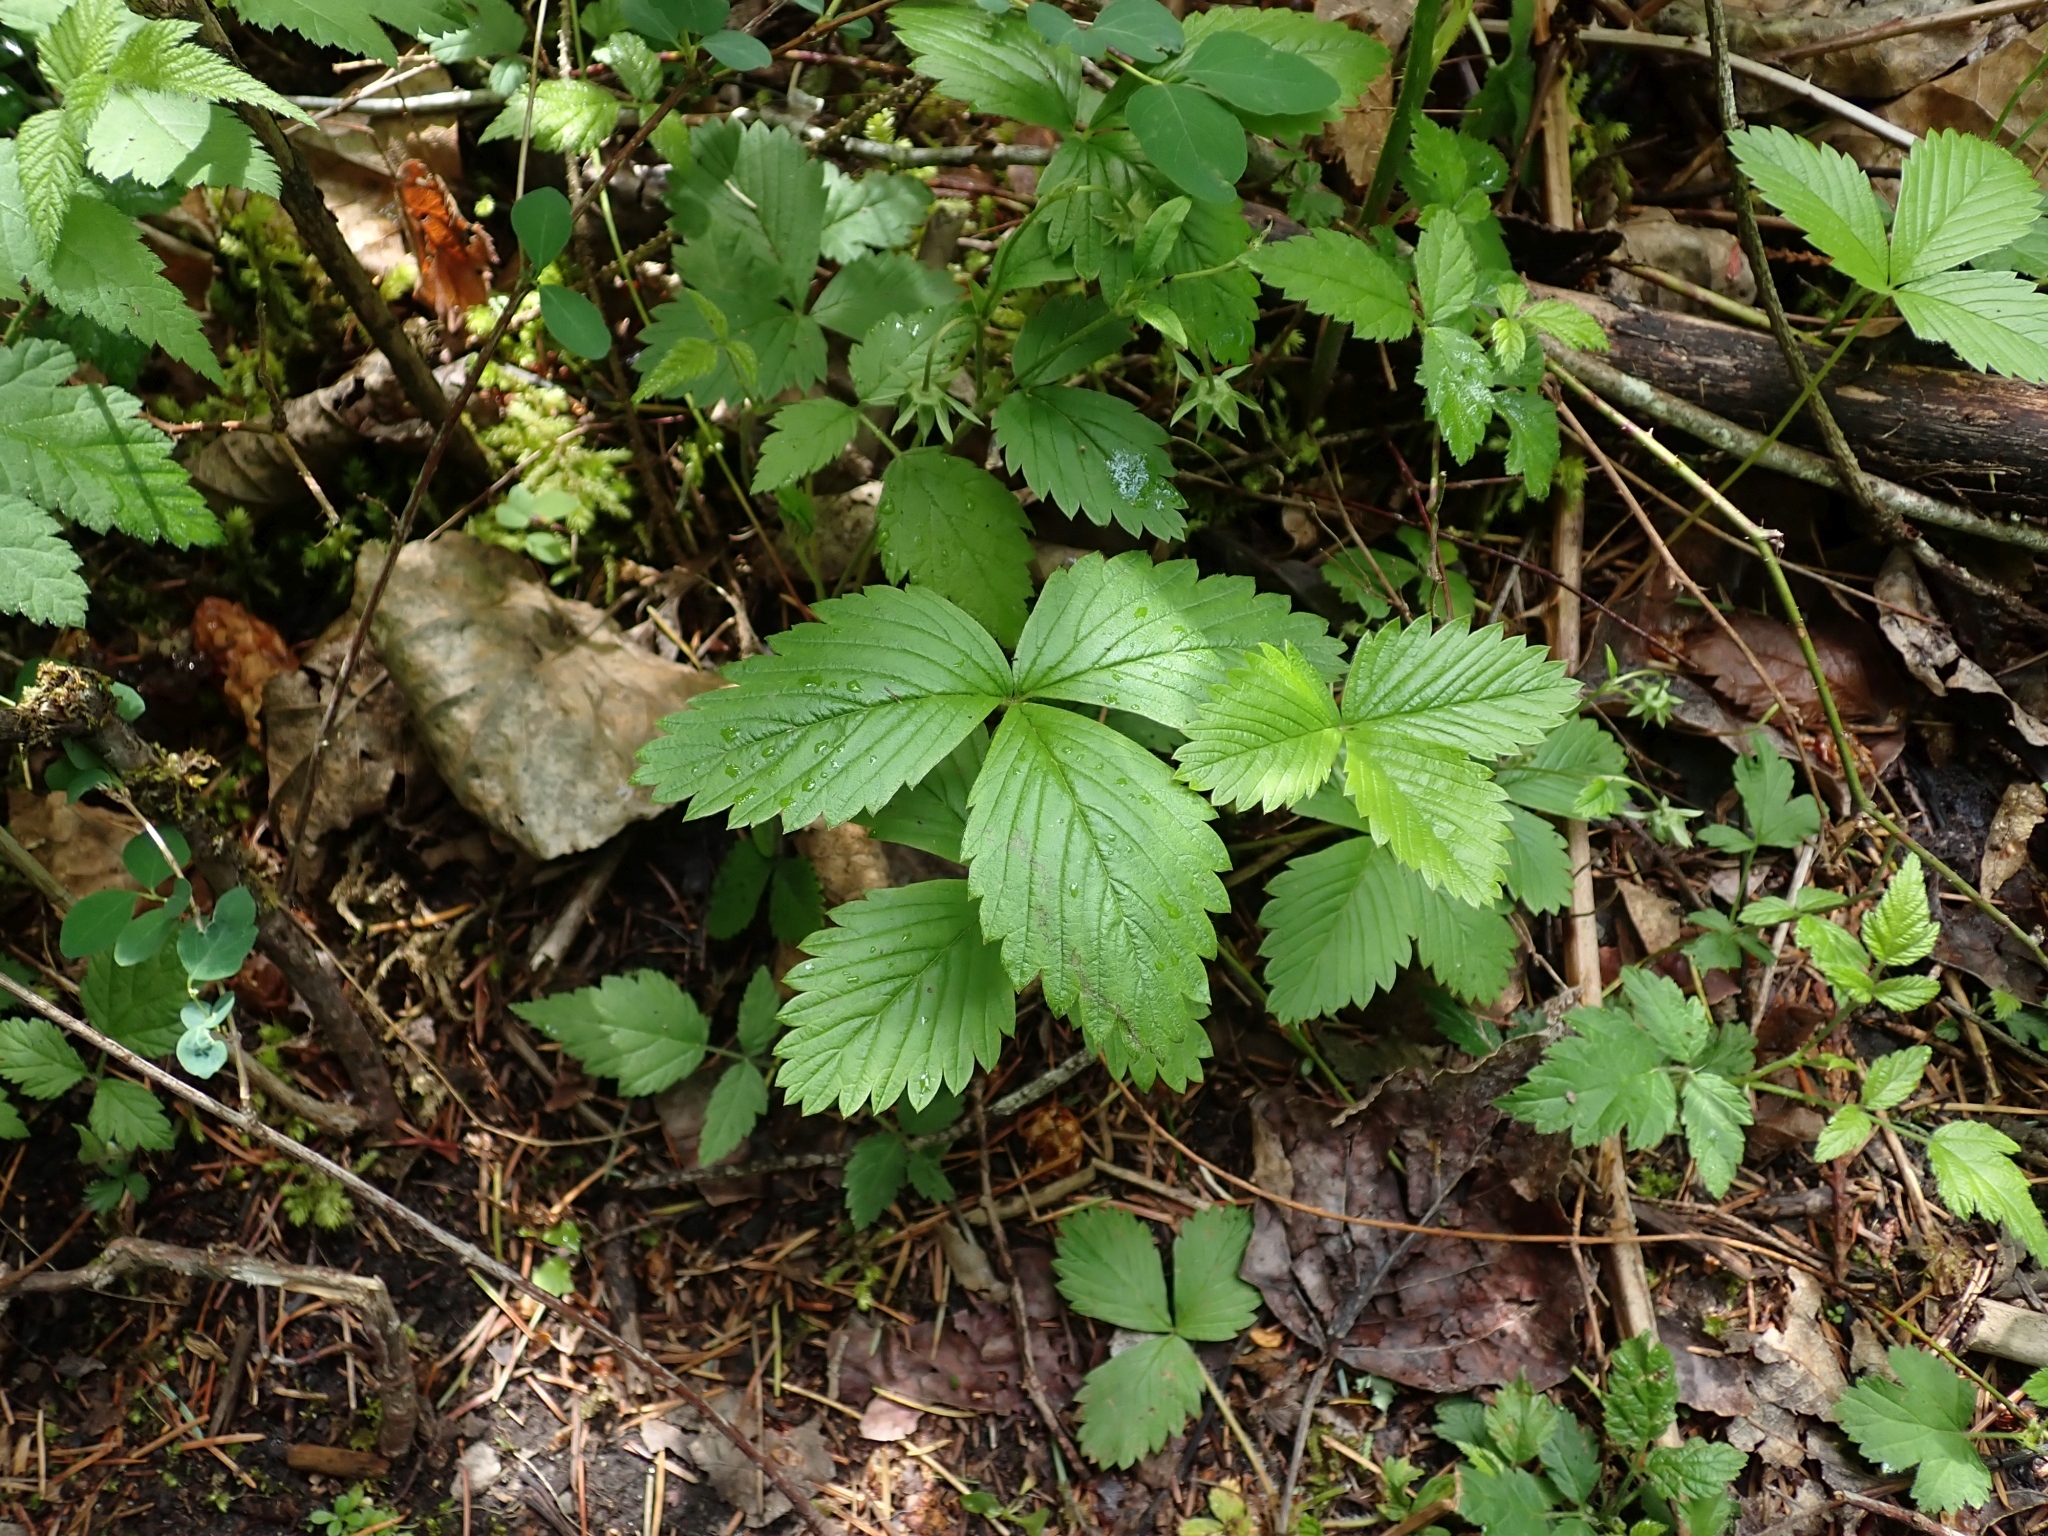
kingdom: Plantae
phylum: Tracheophyta
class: Magnoliopsida
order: Rosales
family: Rosaceae
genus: Fragaria
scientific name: Fragaria vesca
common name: Wild strawberry
